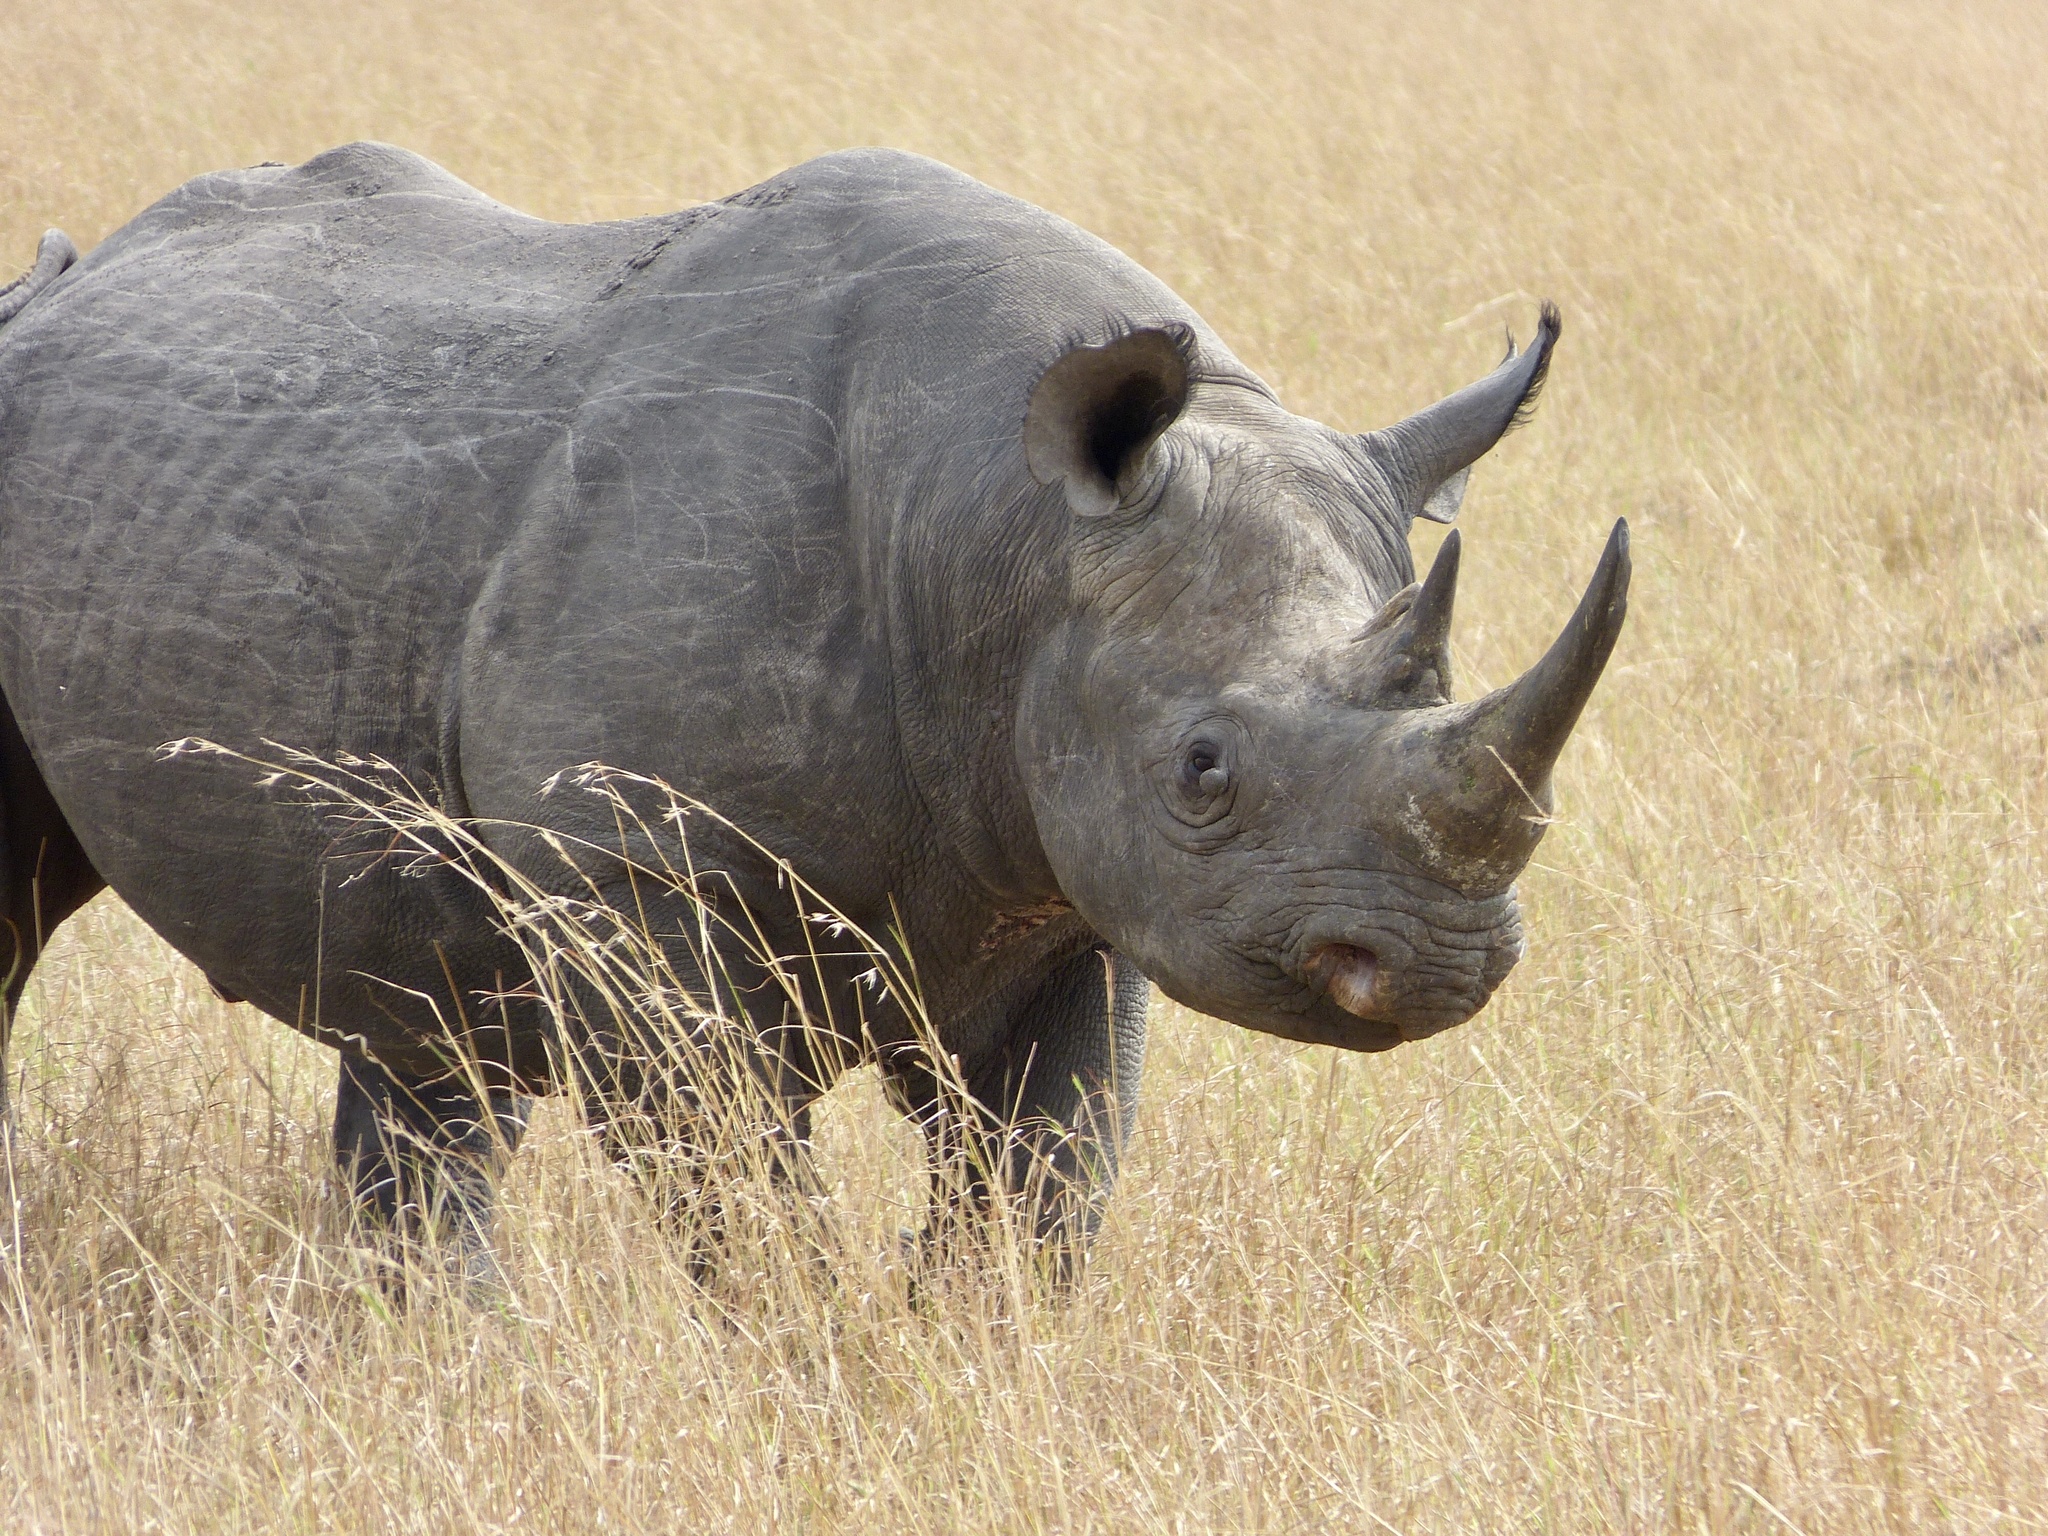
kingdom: Animalia
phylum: Chordata
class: Mammalia
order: Perissodactyla
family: Rhinocerotidae
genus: Diceros
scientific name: Diceros bicornis
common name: Black rhinoceros
